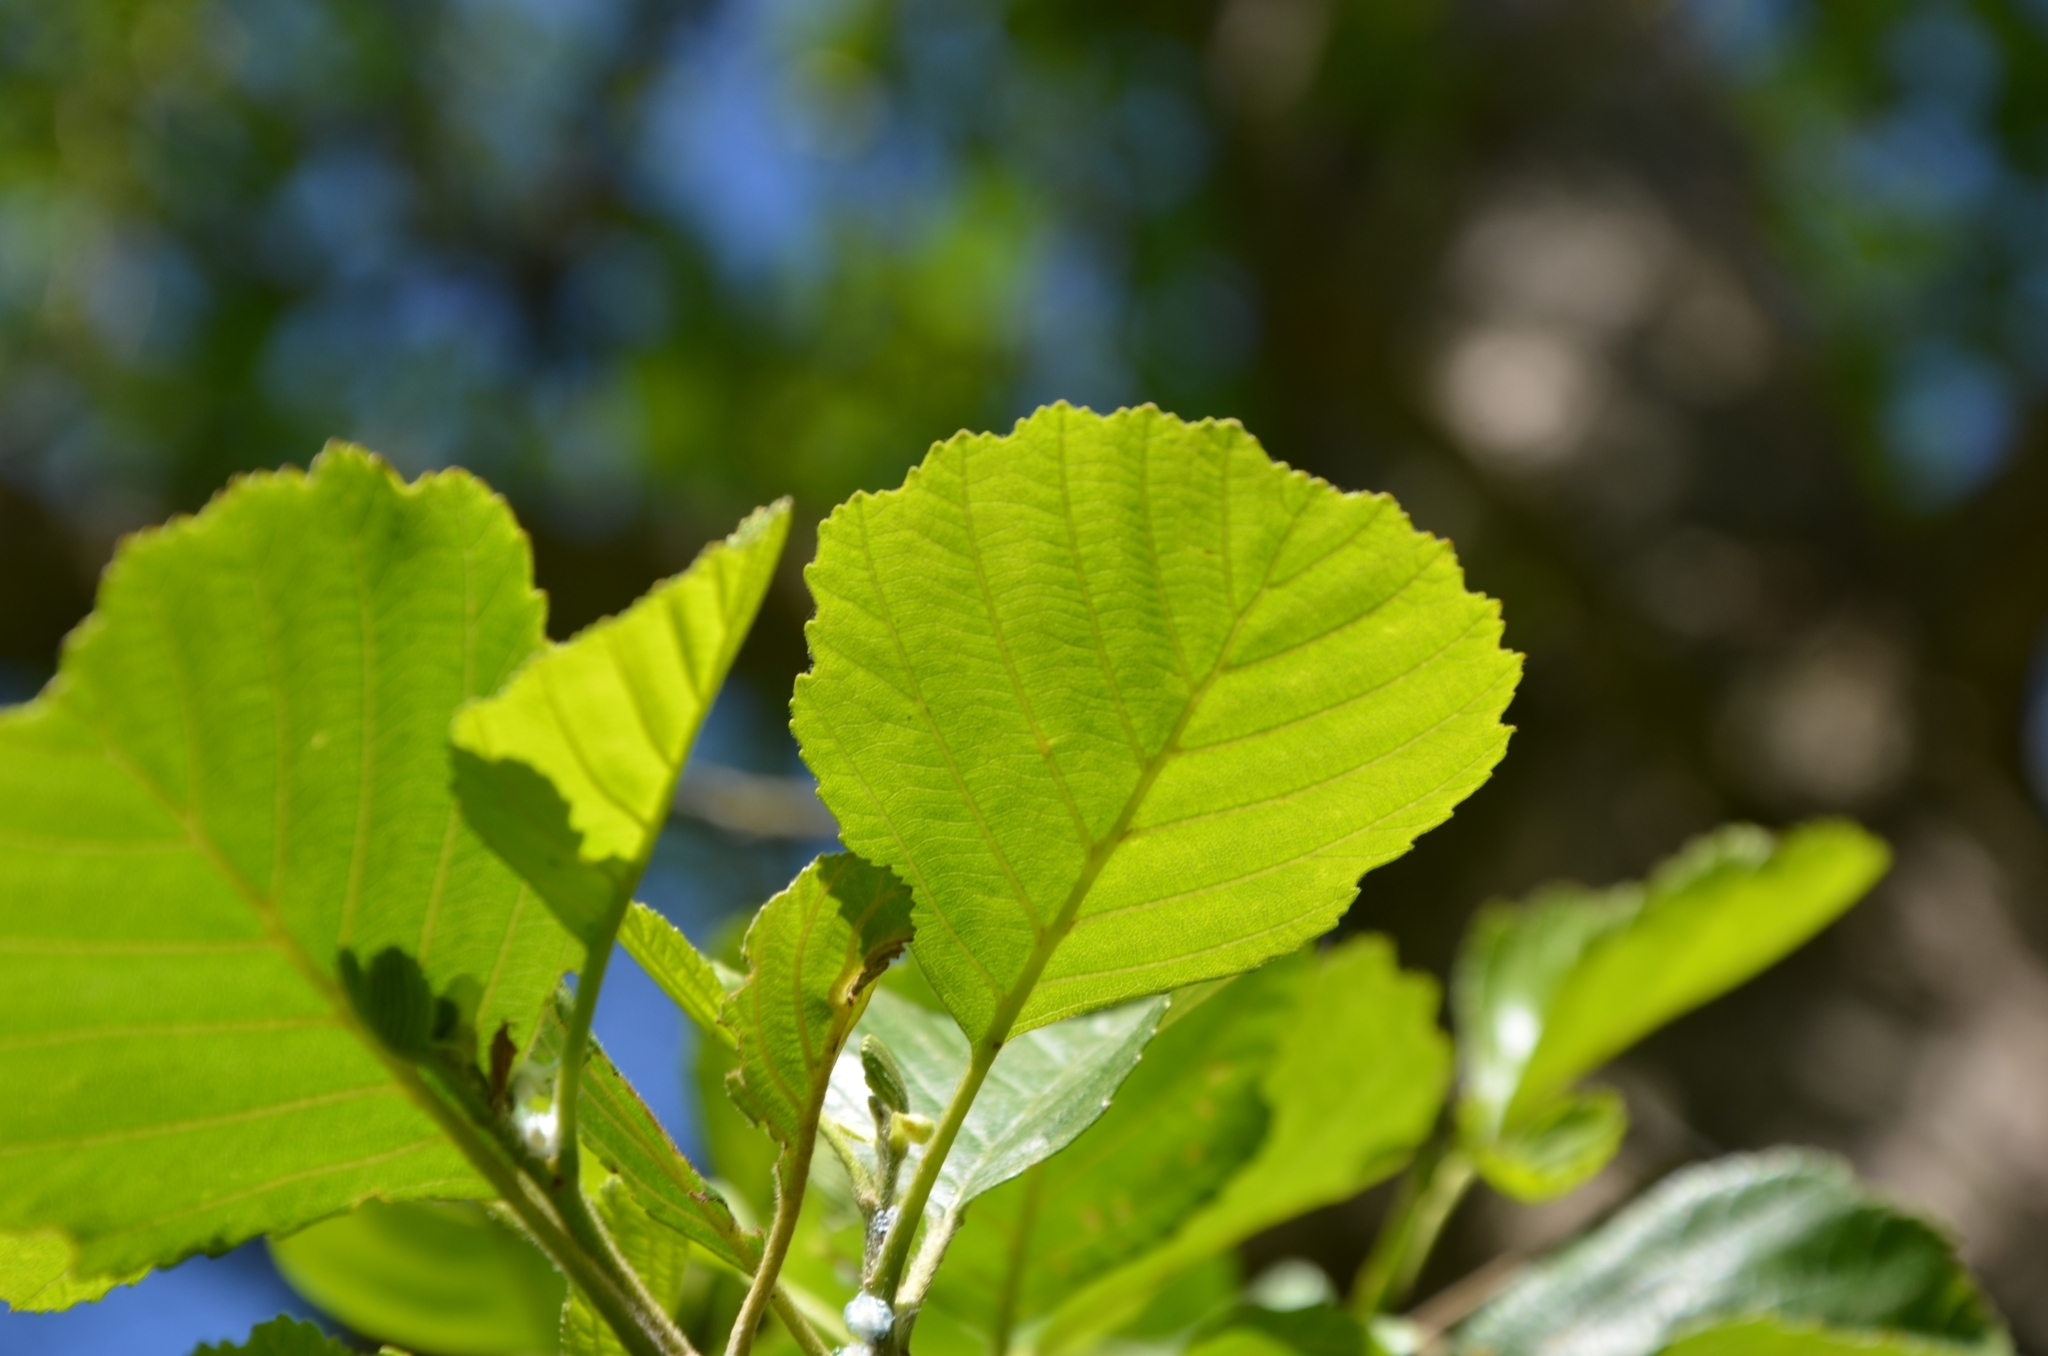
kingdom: Plantae
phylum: Tracheophyta
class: Magnoliopsida
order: Fagales
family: Betulaceae
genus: Alnus
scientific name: Alnus glutinosa
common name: Black alder
